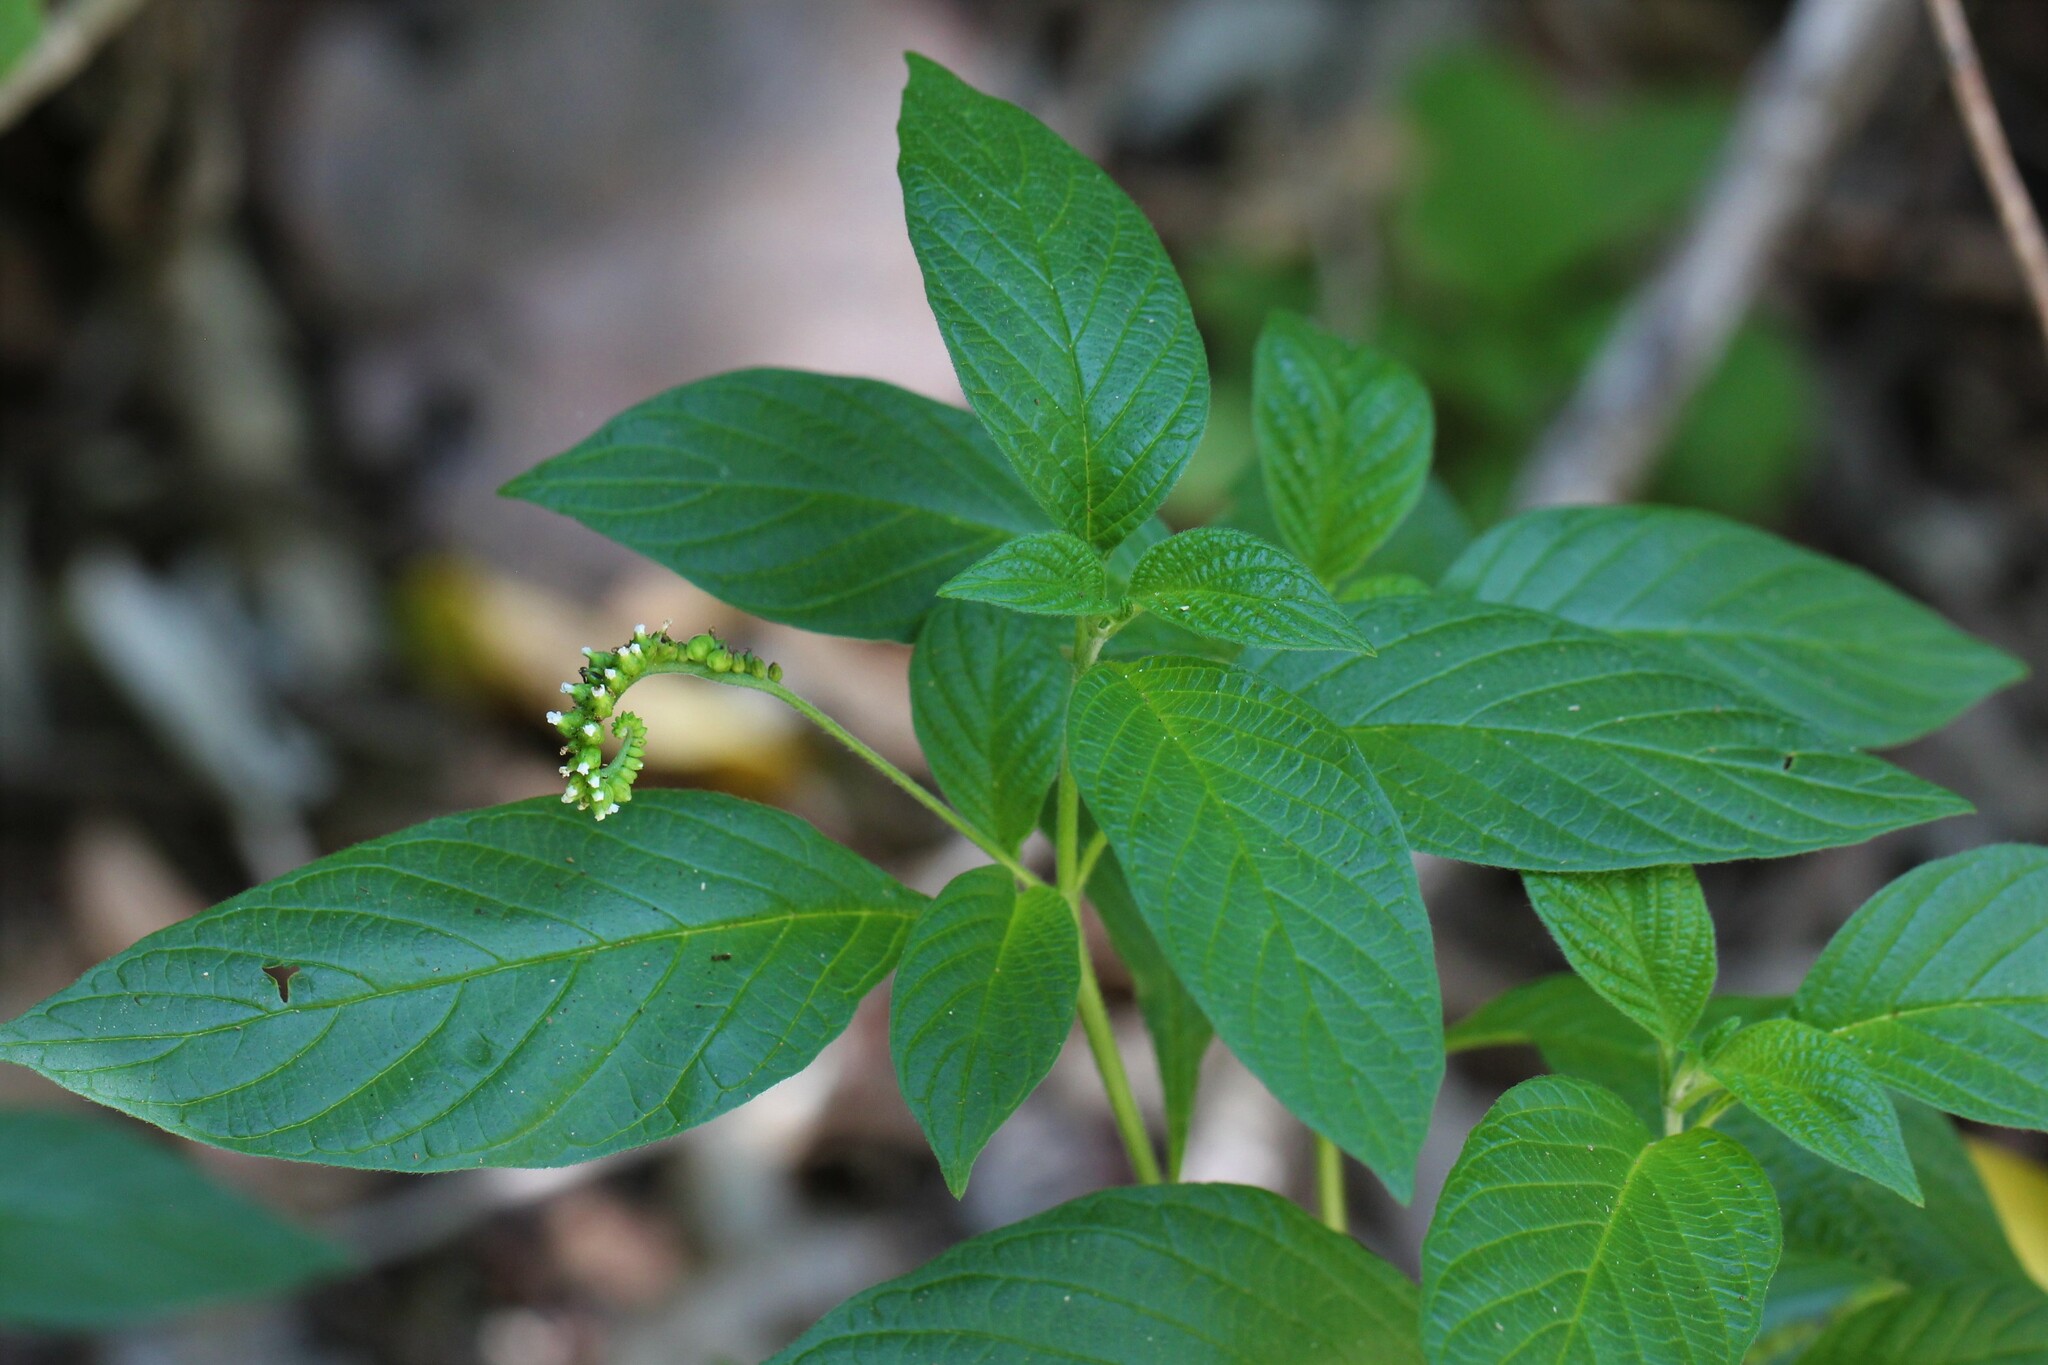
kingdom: Plantae
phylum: Tracheophyta
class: Magnoliopsida
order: Boraginales
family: Heliotropiaceae
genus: Heliotropium
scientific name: Heliotropium angiospermum
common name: Eye bright
